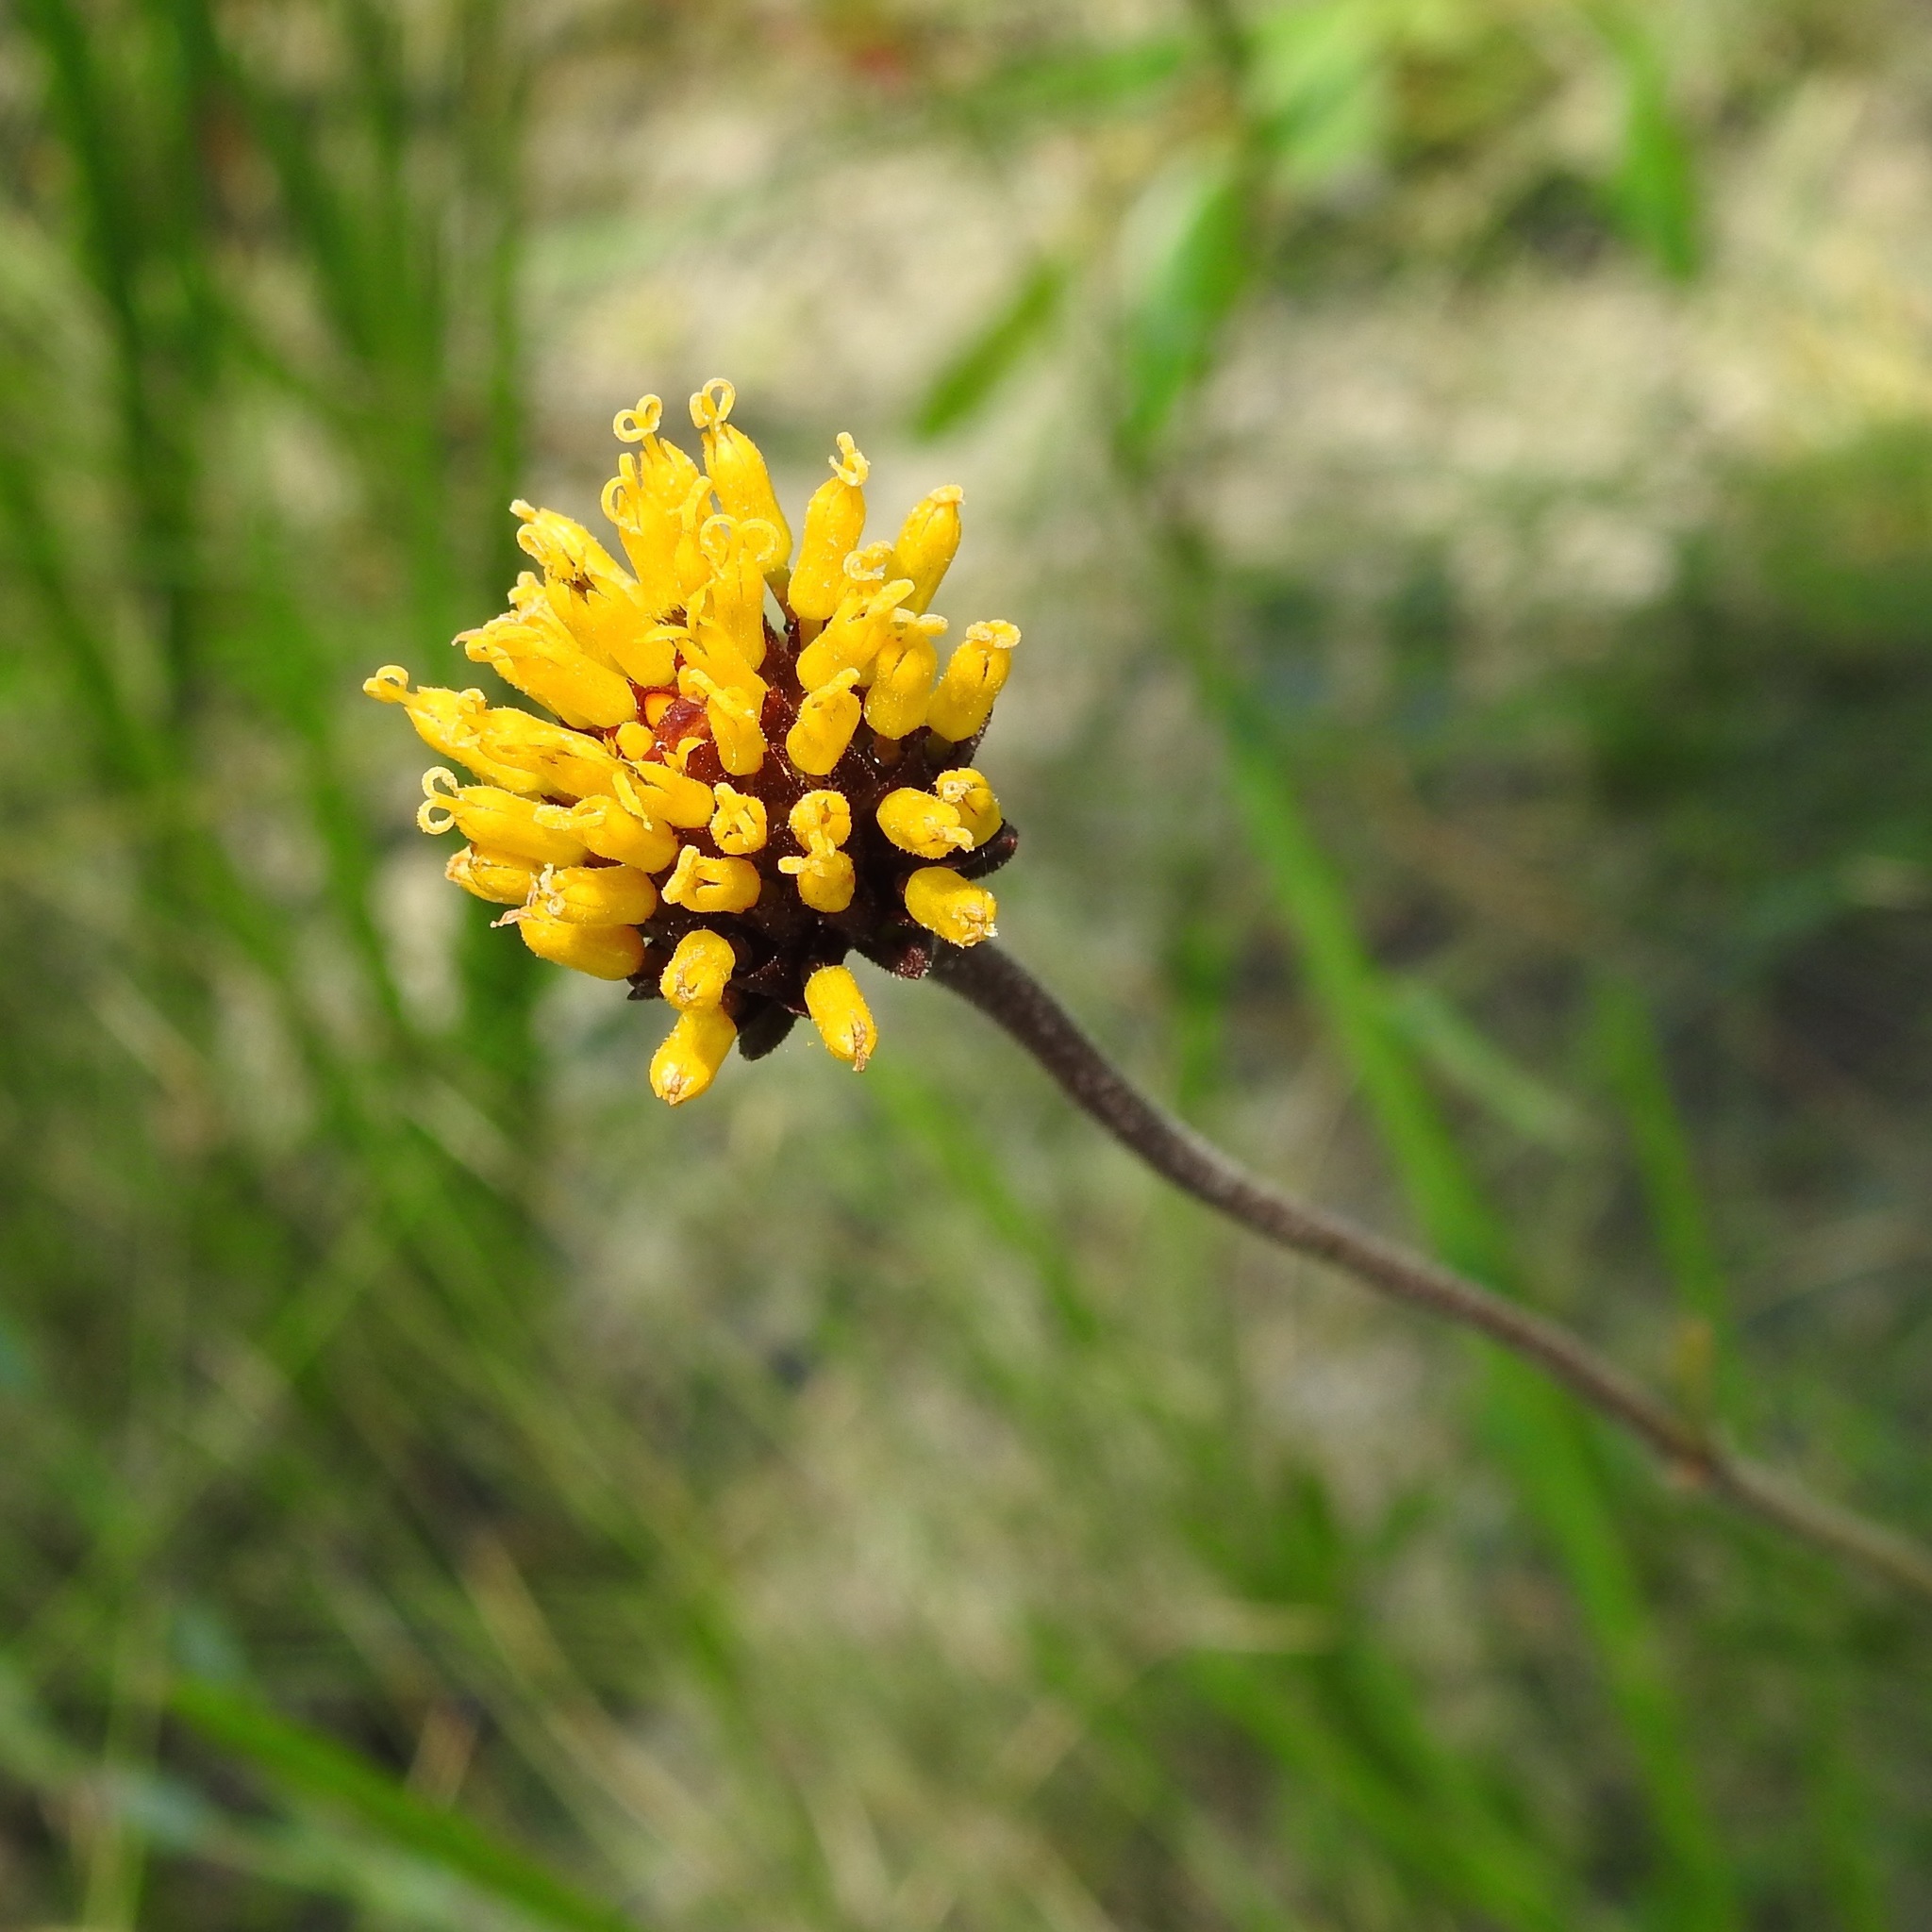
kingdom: Plantae
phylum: Tracheophyta
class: Magnoliopsida
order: Asterales
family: Asteraceae
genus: Verbesina
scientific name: Verbesina chapmanii
